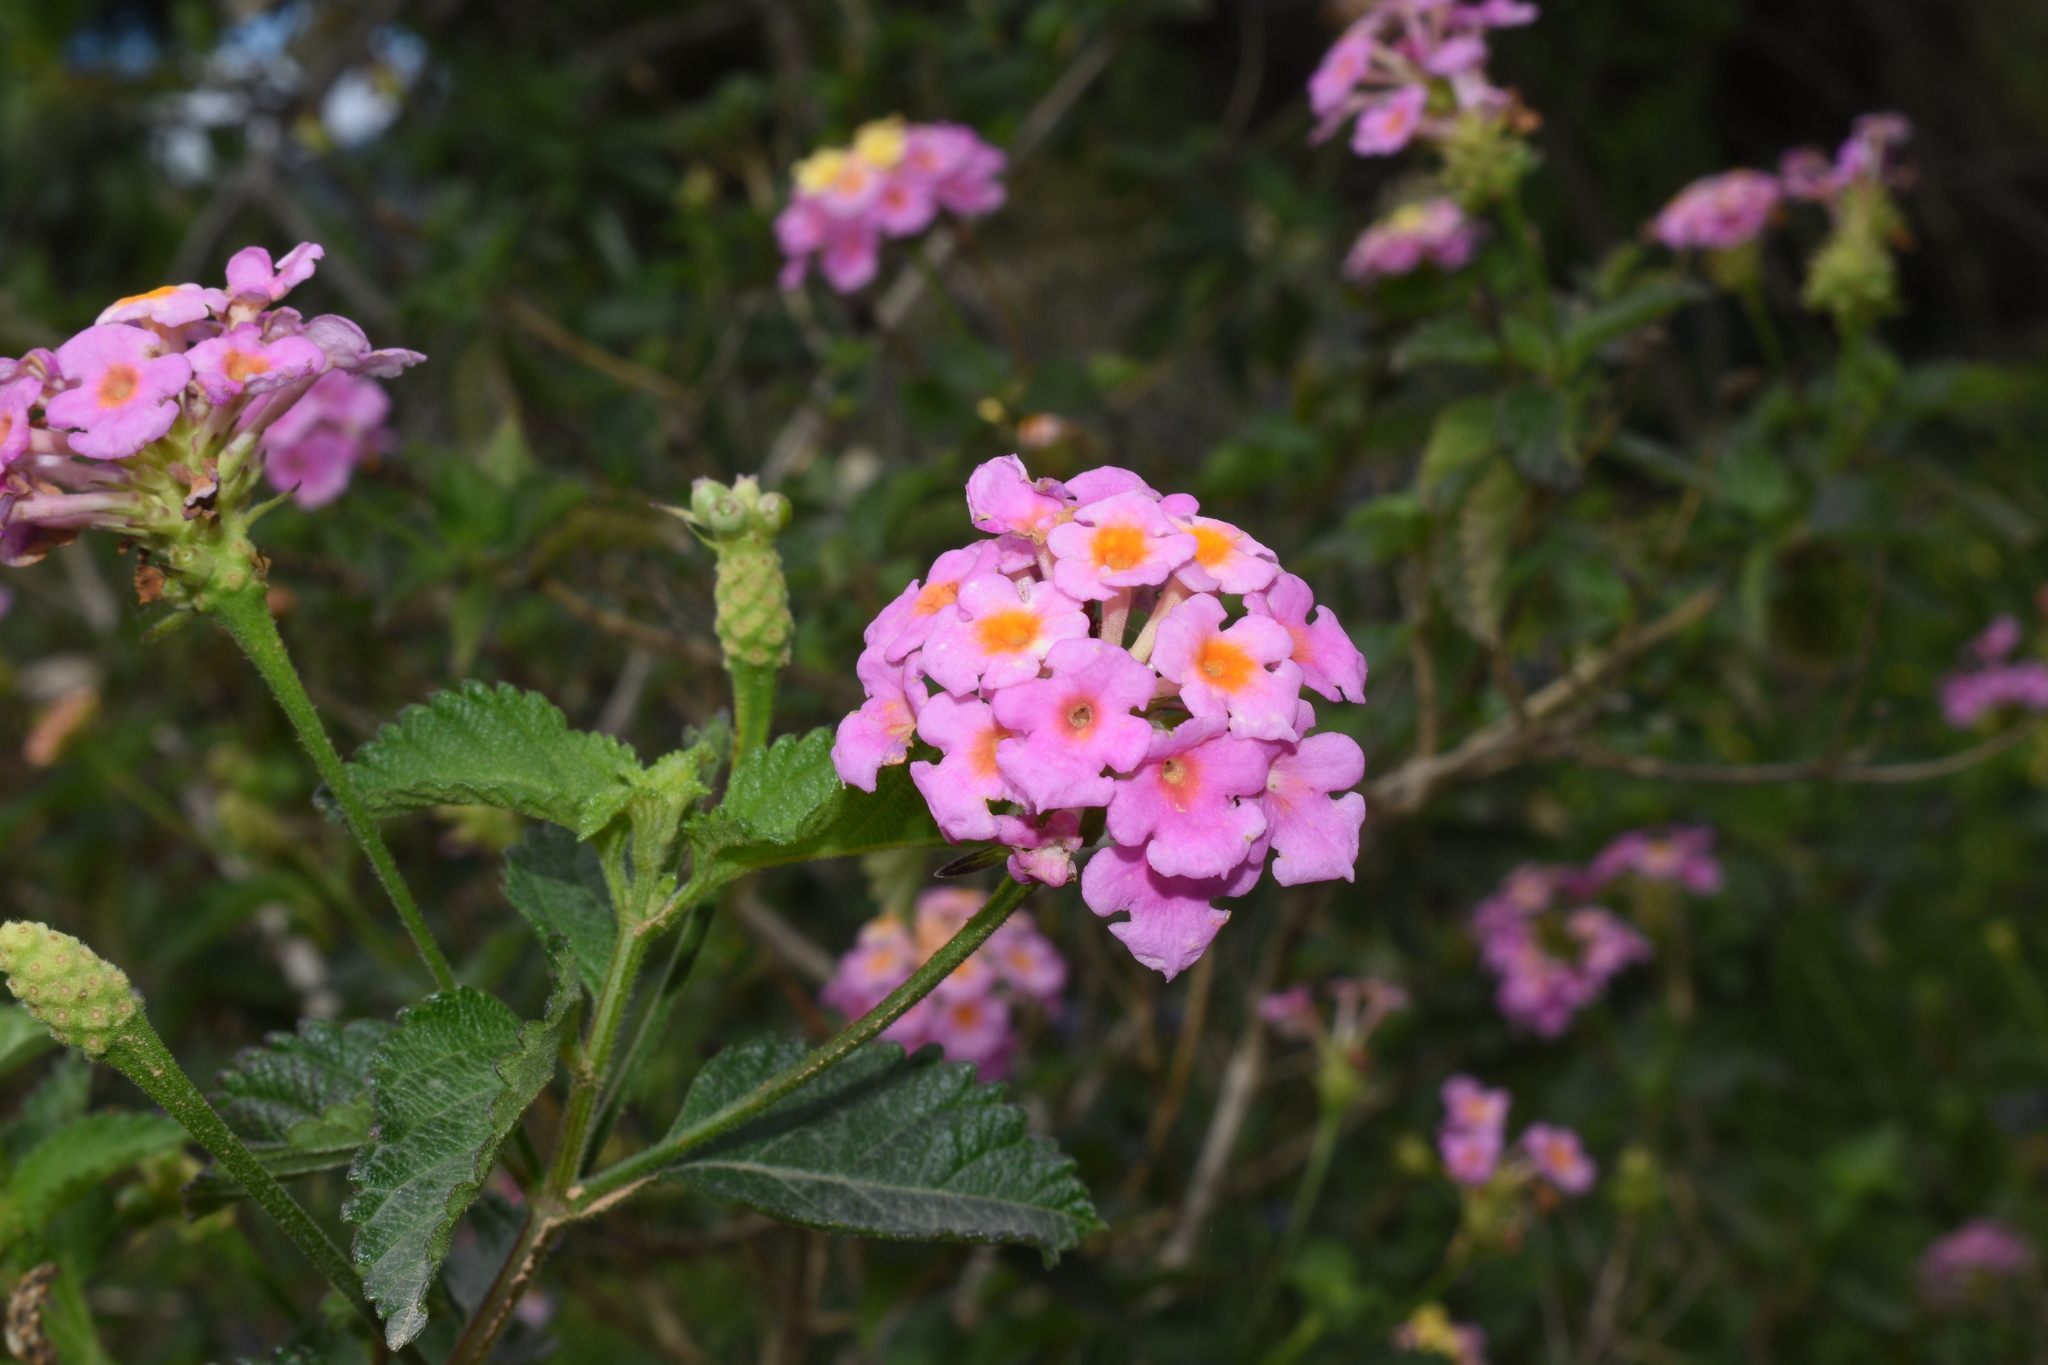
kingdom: Plantae
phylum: Tracheophyta
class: Magnoliopsida
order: Lamiales
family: Verbenaceae
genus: Lantana
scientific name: Lantana camara
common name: Lantana
